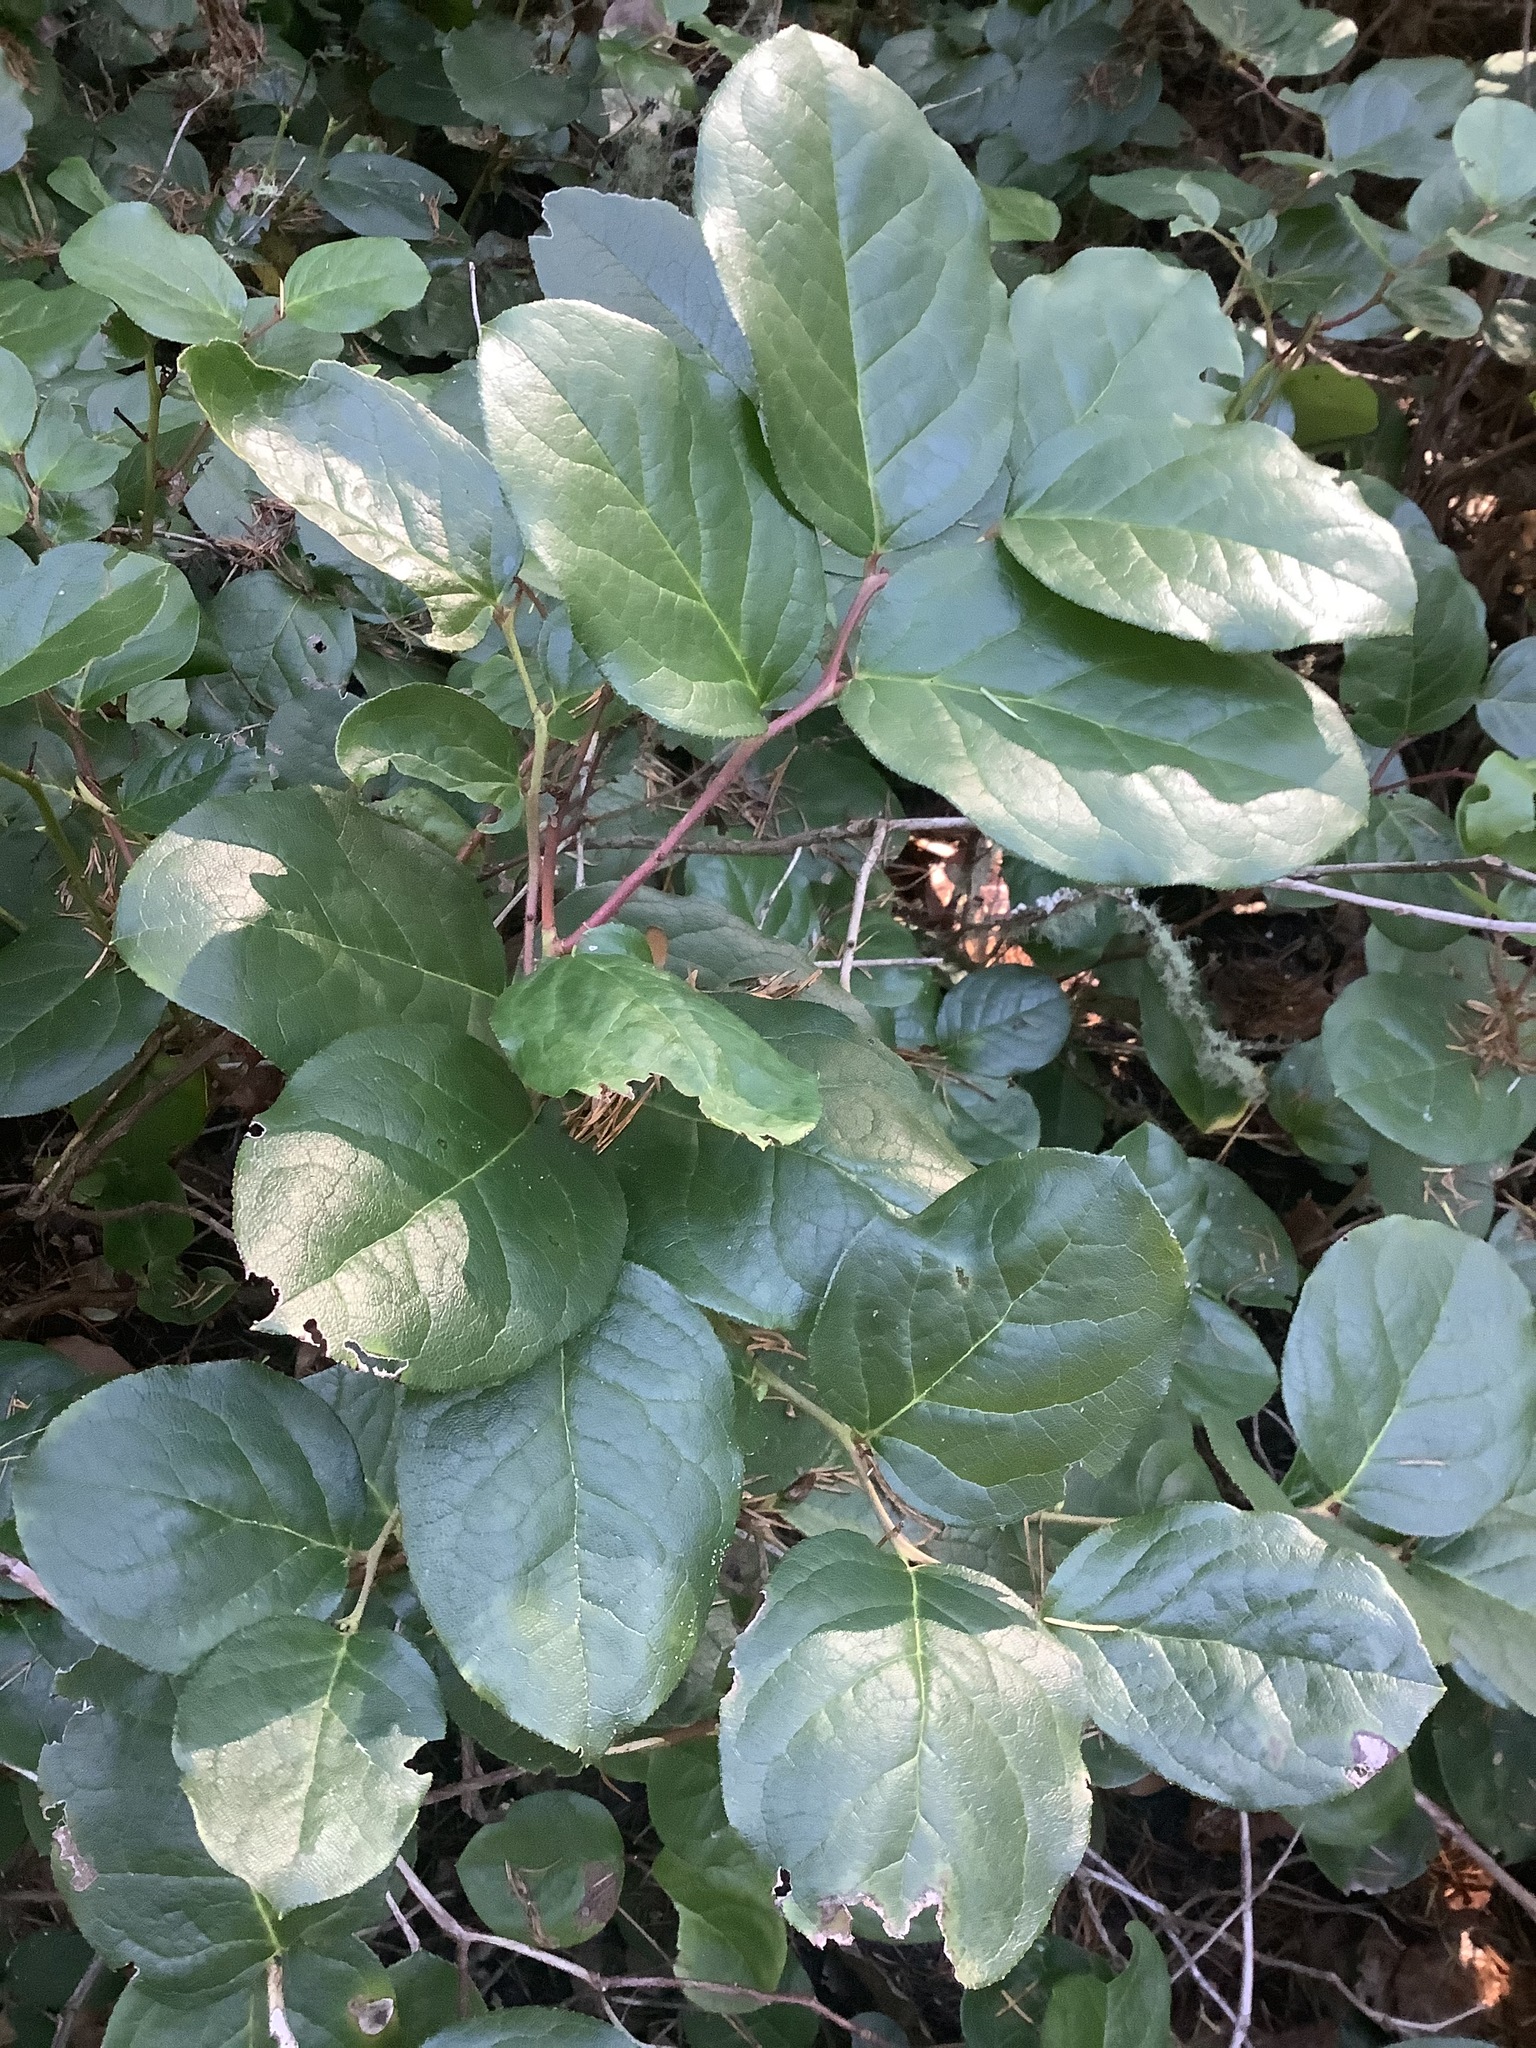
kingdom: Plantae
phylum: Tracheophyta
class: Magnoliopsida
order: Ericales
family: Ericaceae
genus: Gaultheria
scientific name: Gaultheria shallon
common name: Shallon
